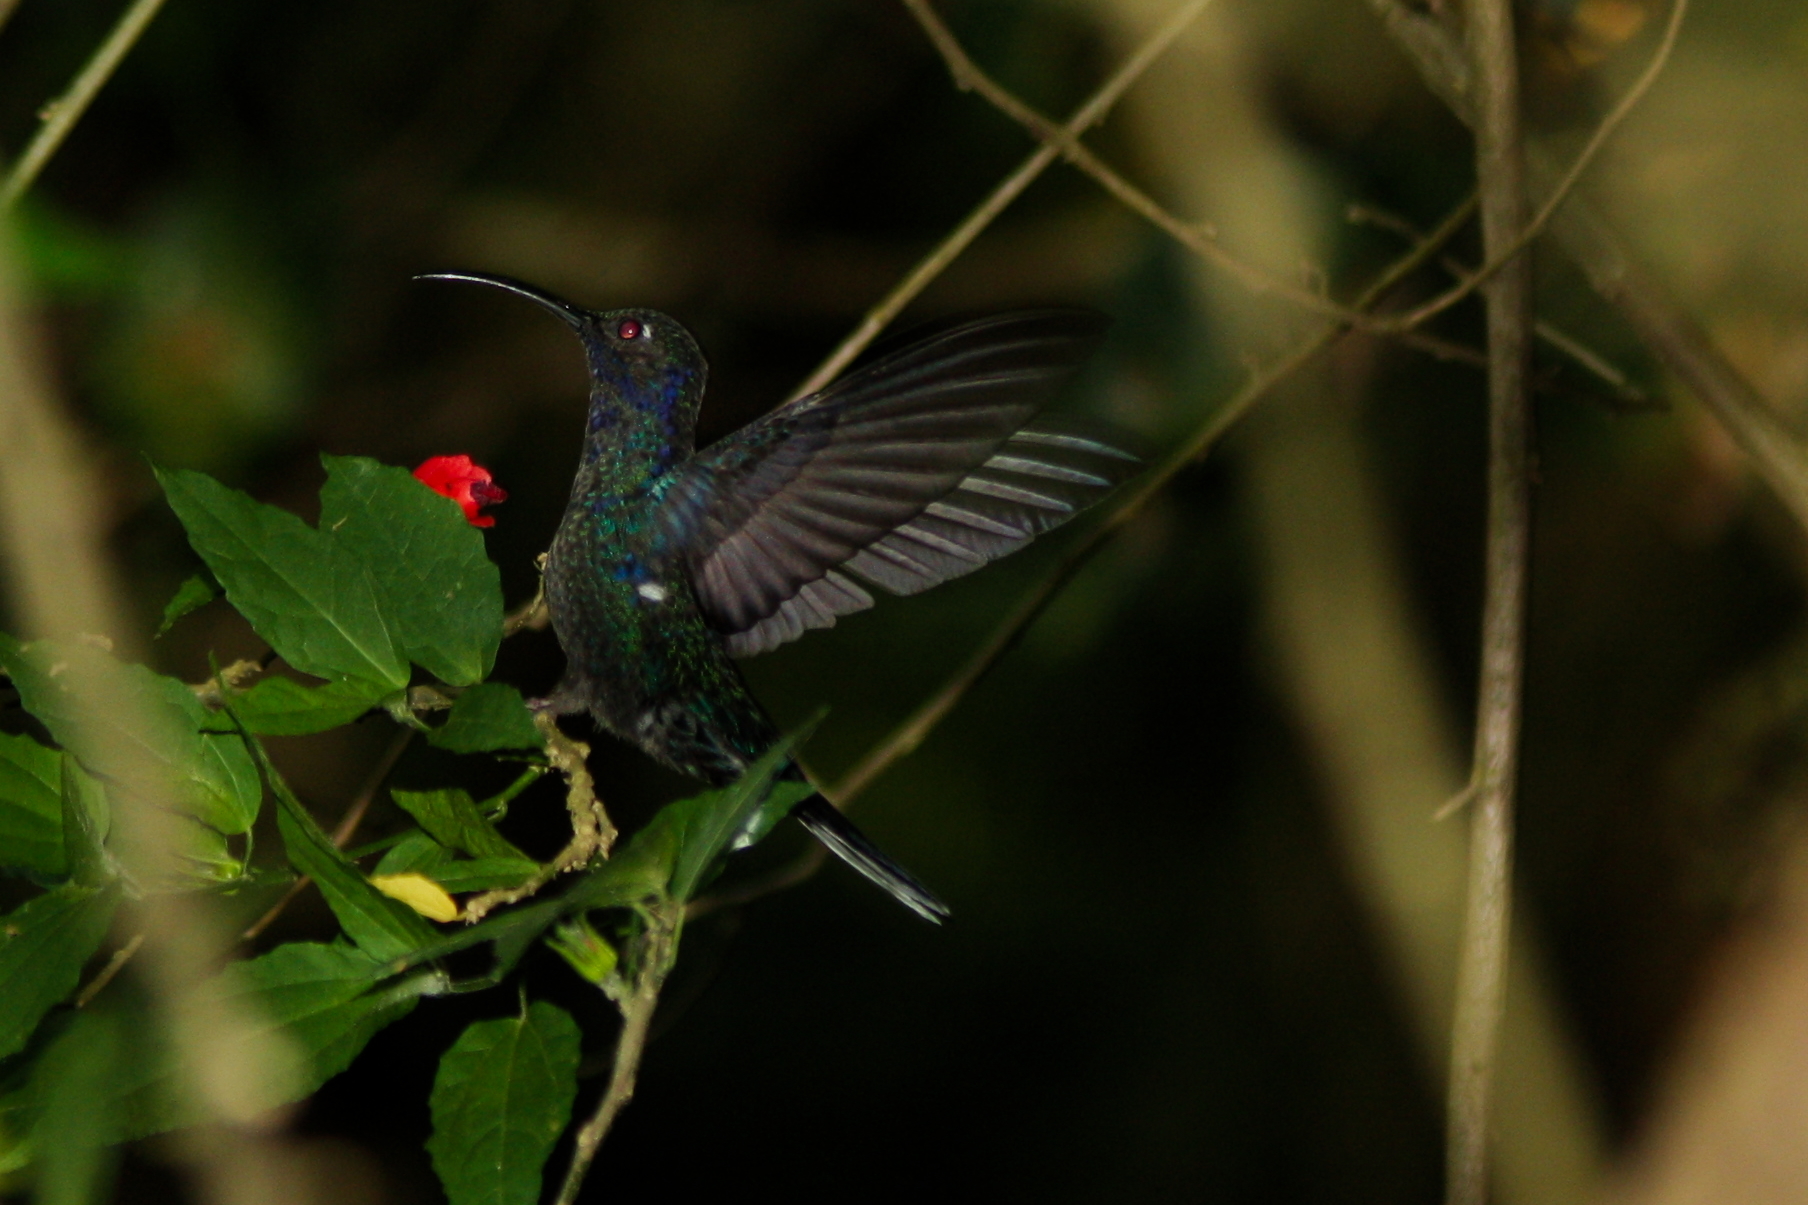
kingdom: Animalia
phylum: Chordata
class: Aves
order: Apodiformes
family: Trochilidae
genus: Campylopterus
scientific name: Campylopterus hemileucurus
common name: Violet sabrewing
